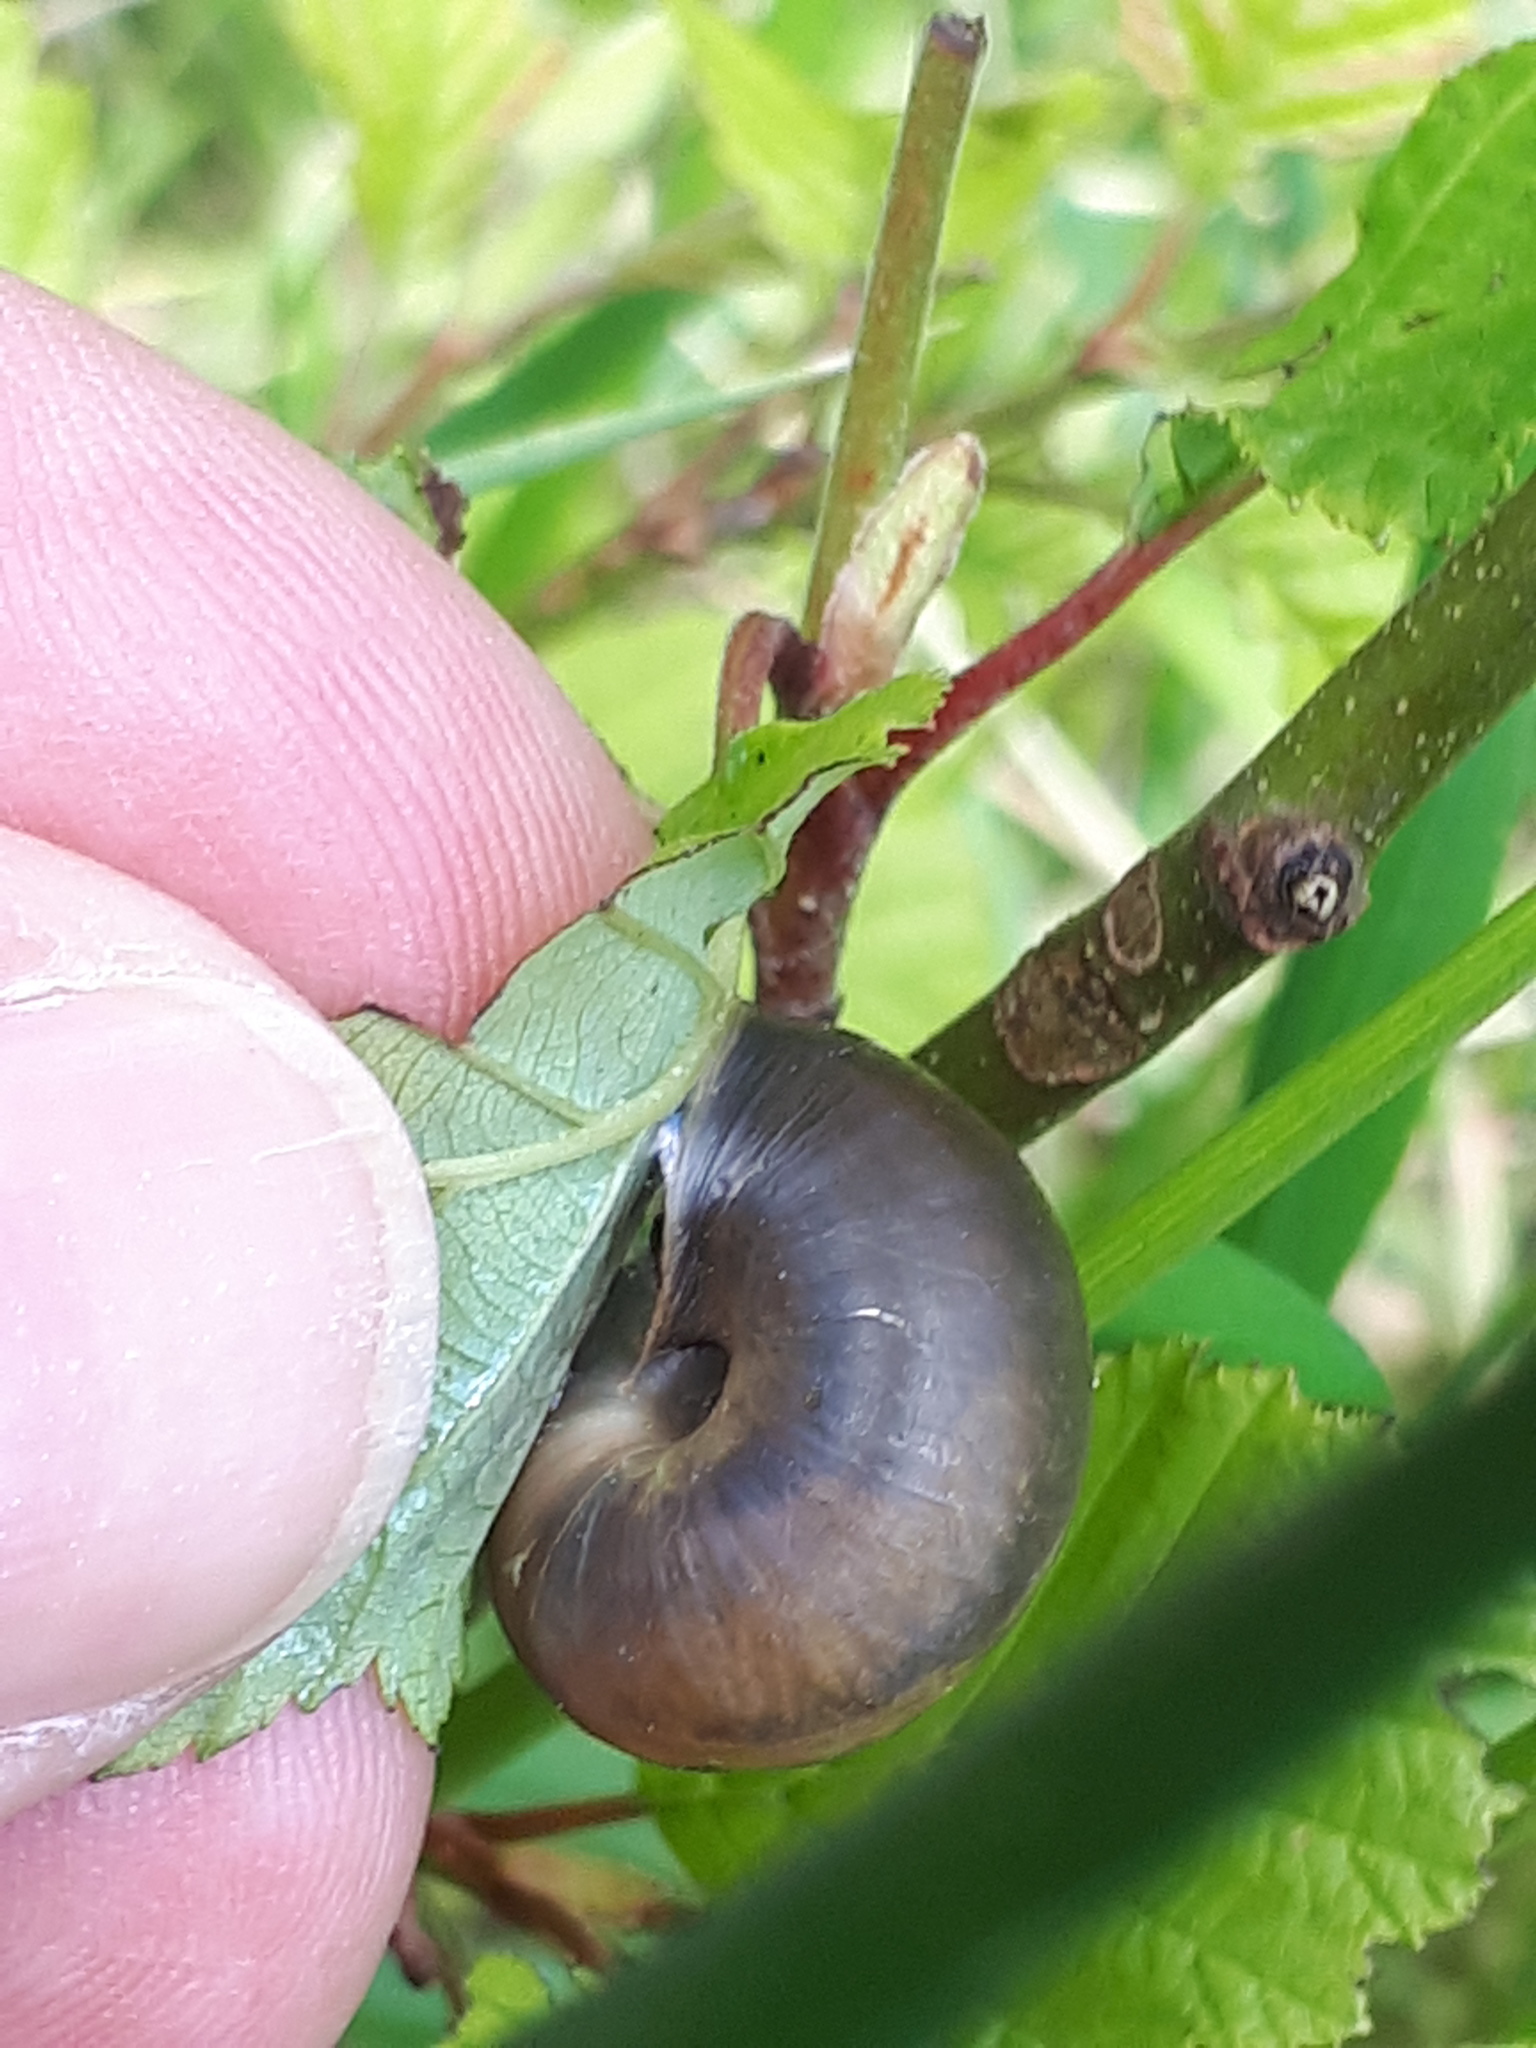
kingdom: Animalia
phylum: Mollusca
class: Gastropoda
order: Stylommatophora
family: Camaenidae
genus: Fruticicola
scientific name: Fruticicola fruticum
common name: Bush snail
